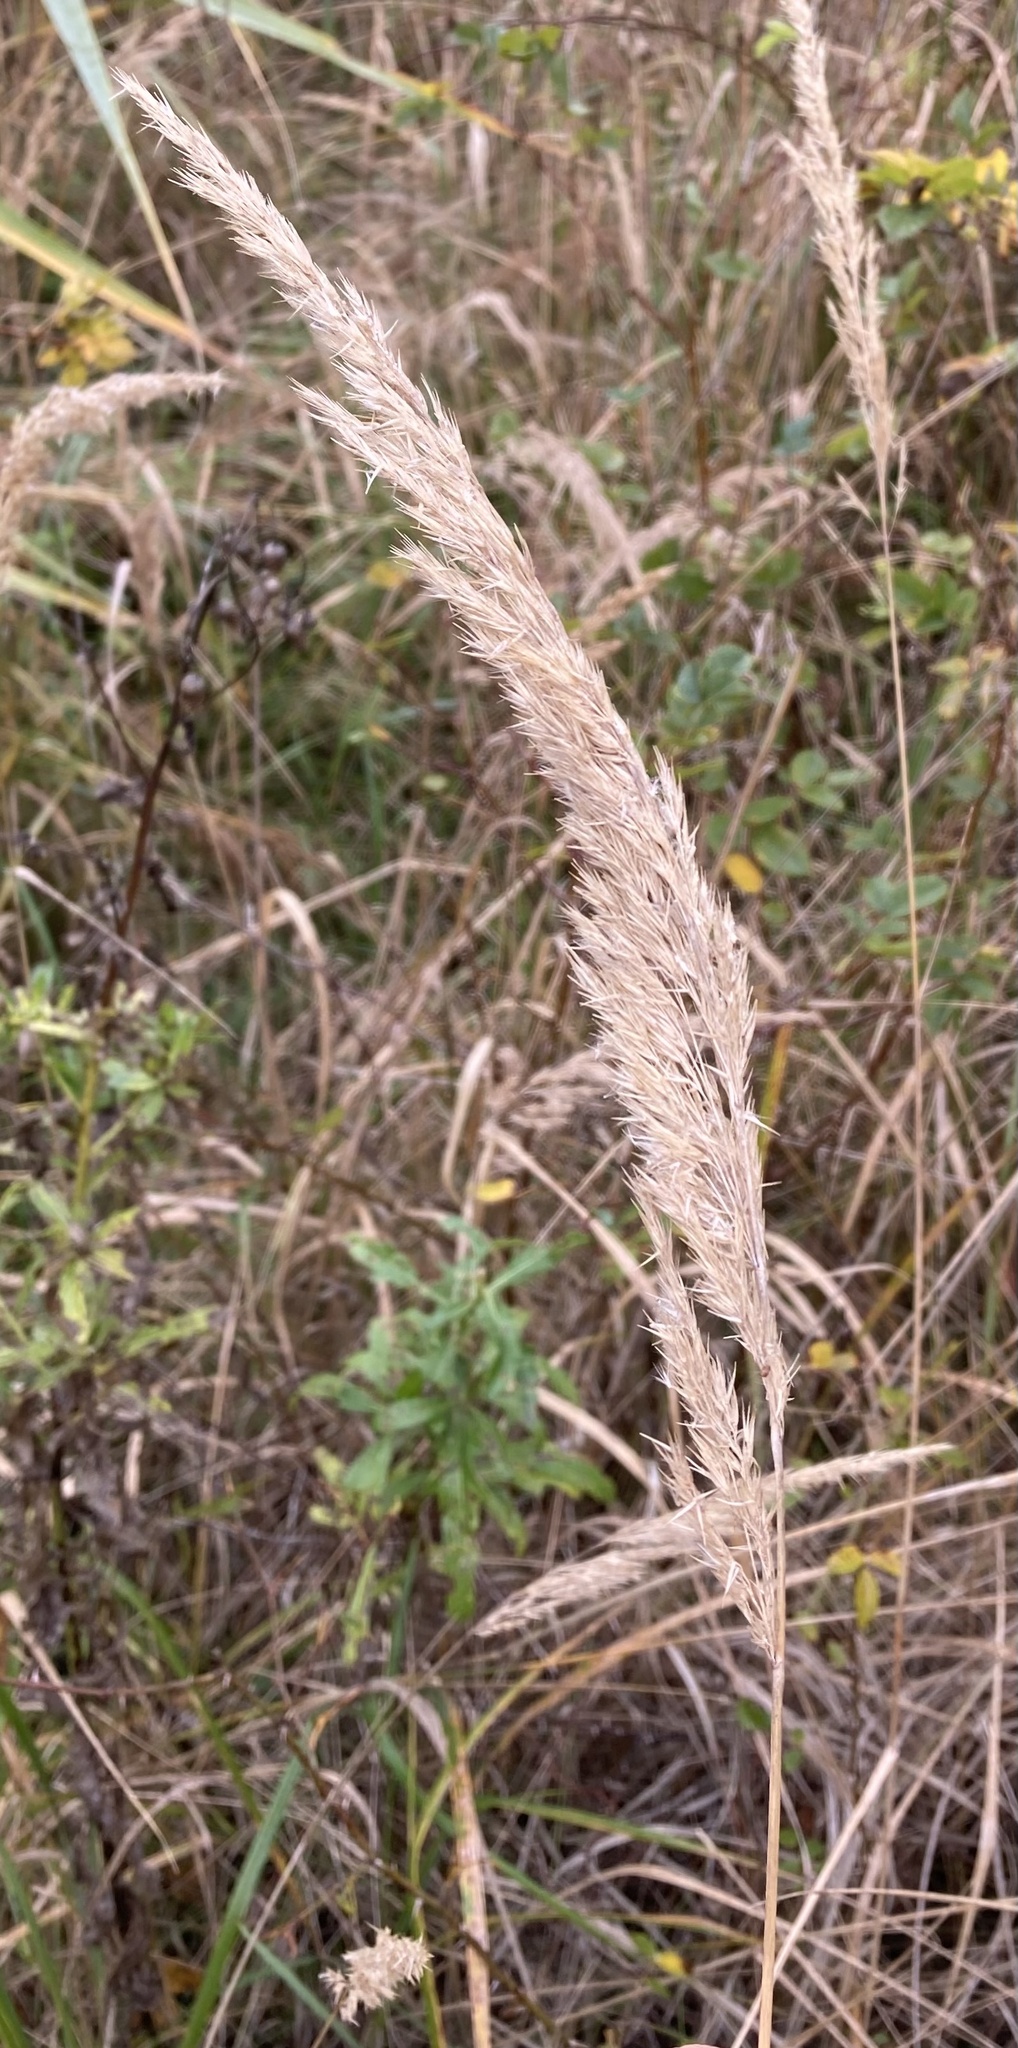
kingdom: Plantae
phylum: Tracheophyta
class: Liliopsida
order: Poales
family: Poaceae
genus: Calamagrostis
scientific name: Calamagrostis epigejos
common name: Wood small-reed
